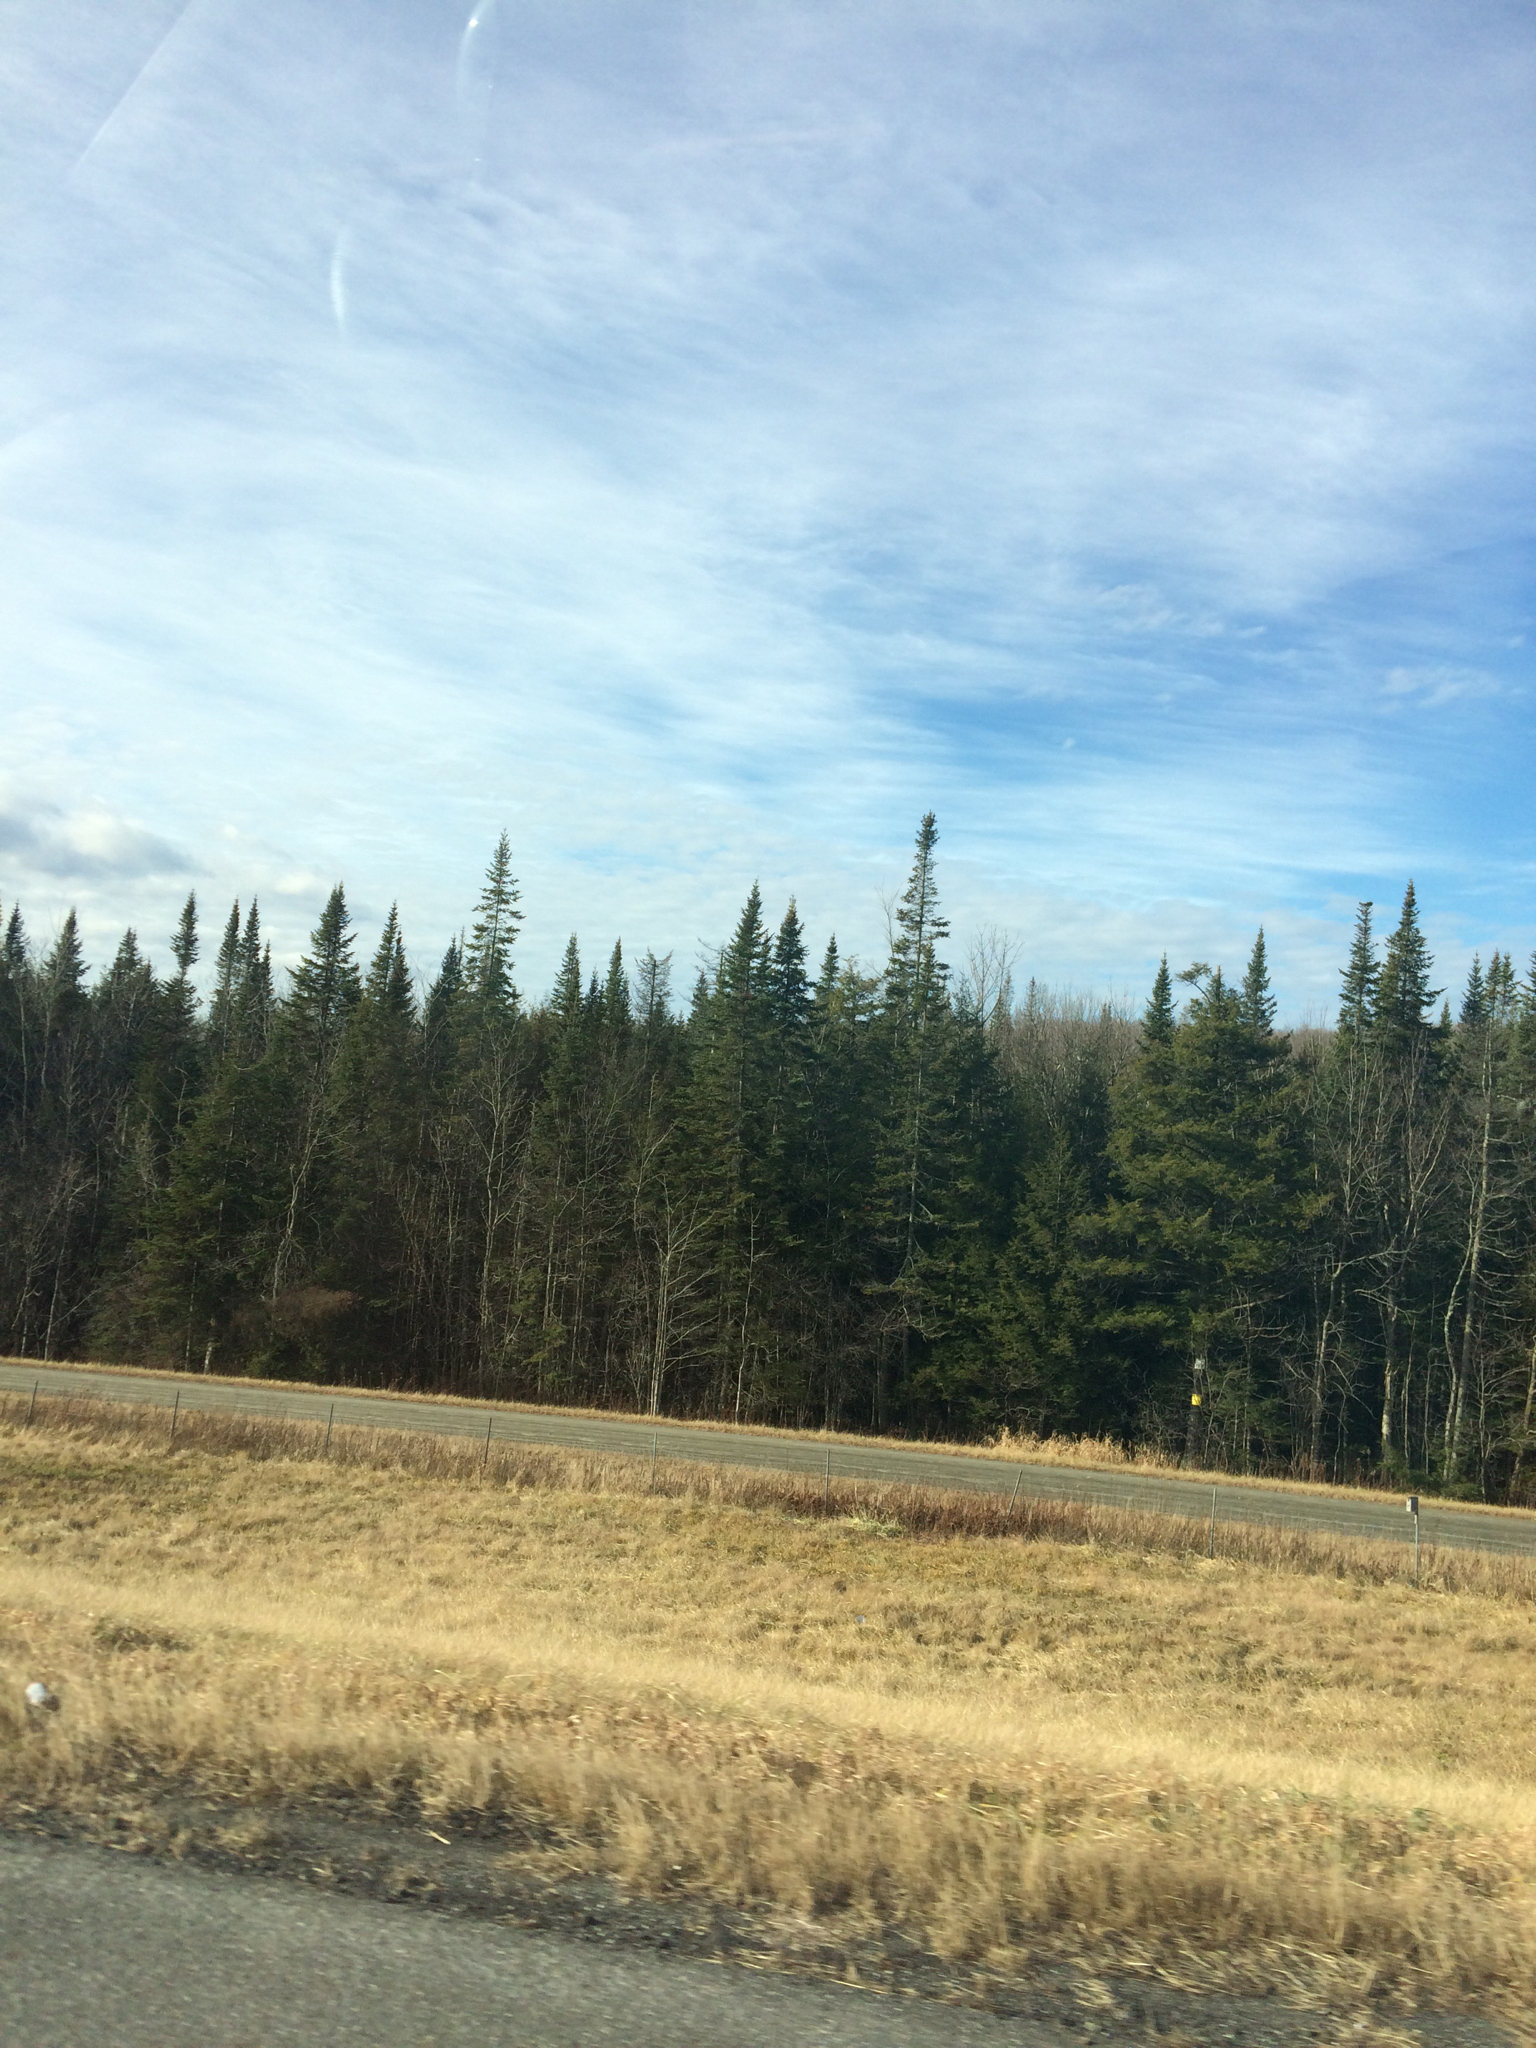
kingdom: Plantae
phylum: Tracheophyta
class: Pinopsida
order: Pinales
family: Pinaceae
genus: Abies
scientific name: Abies balsamea
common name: Balsam fir
